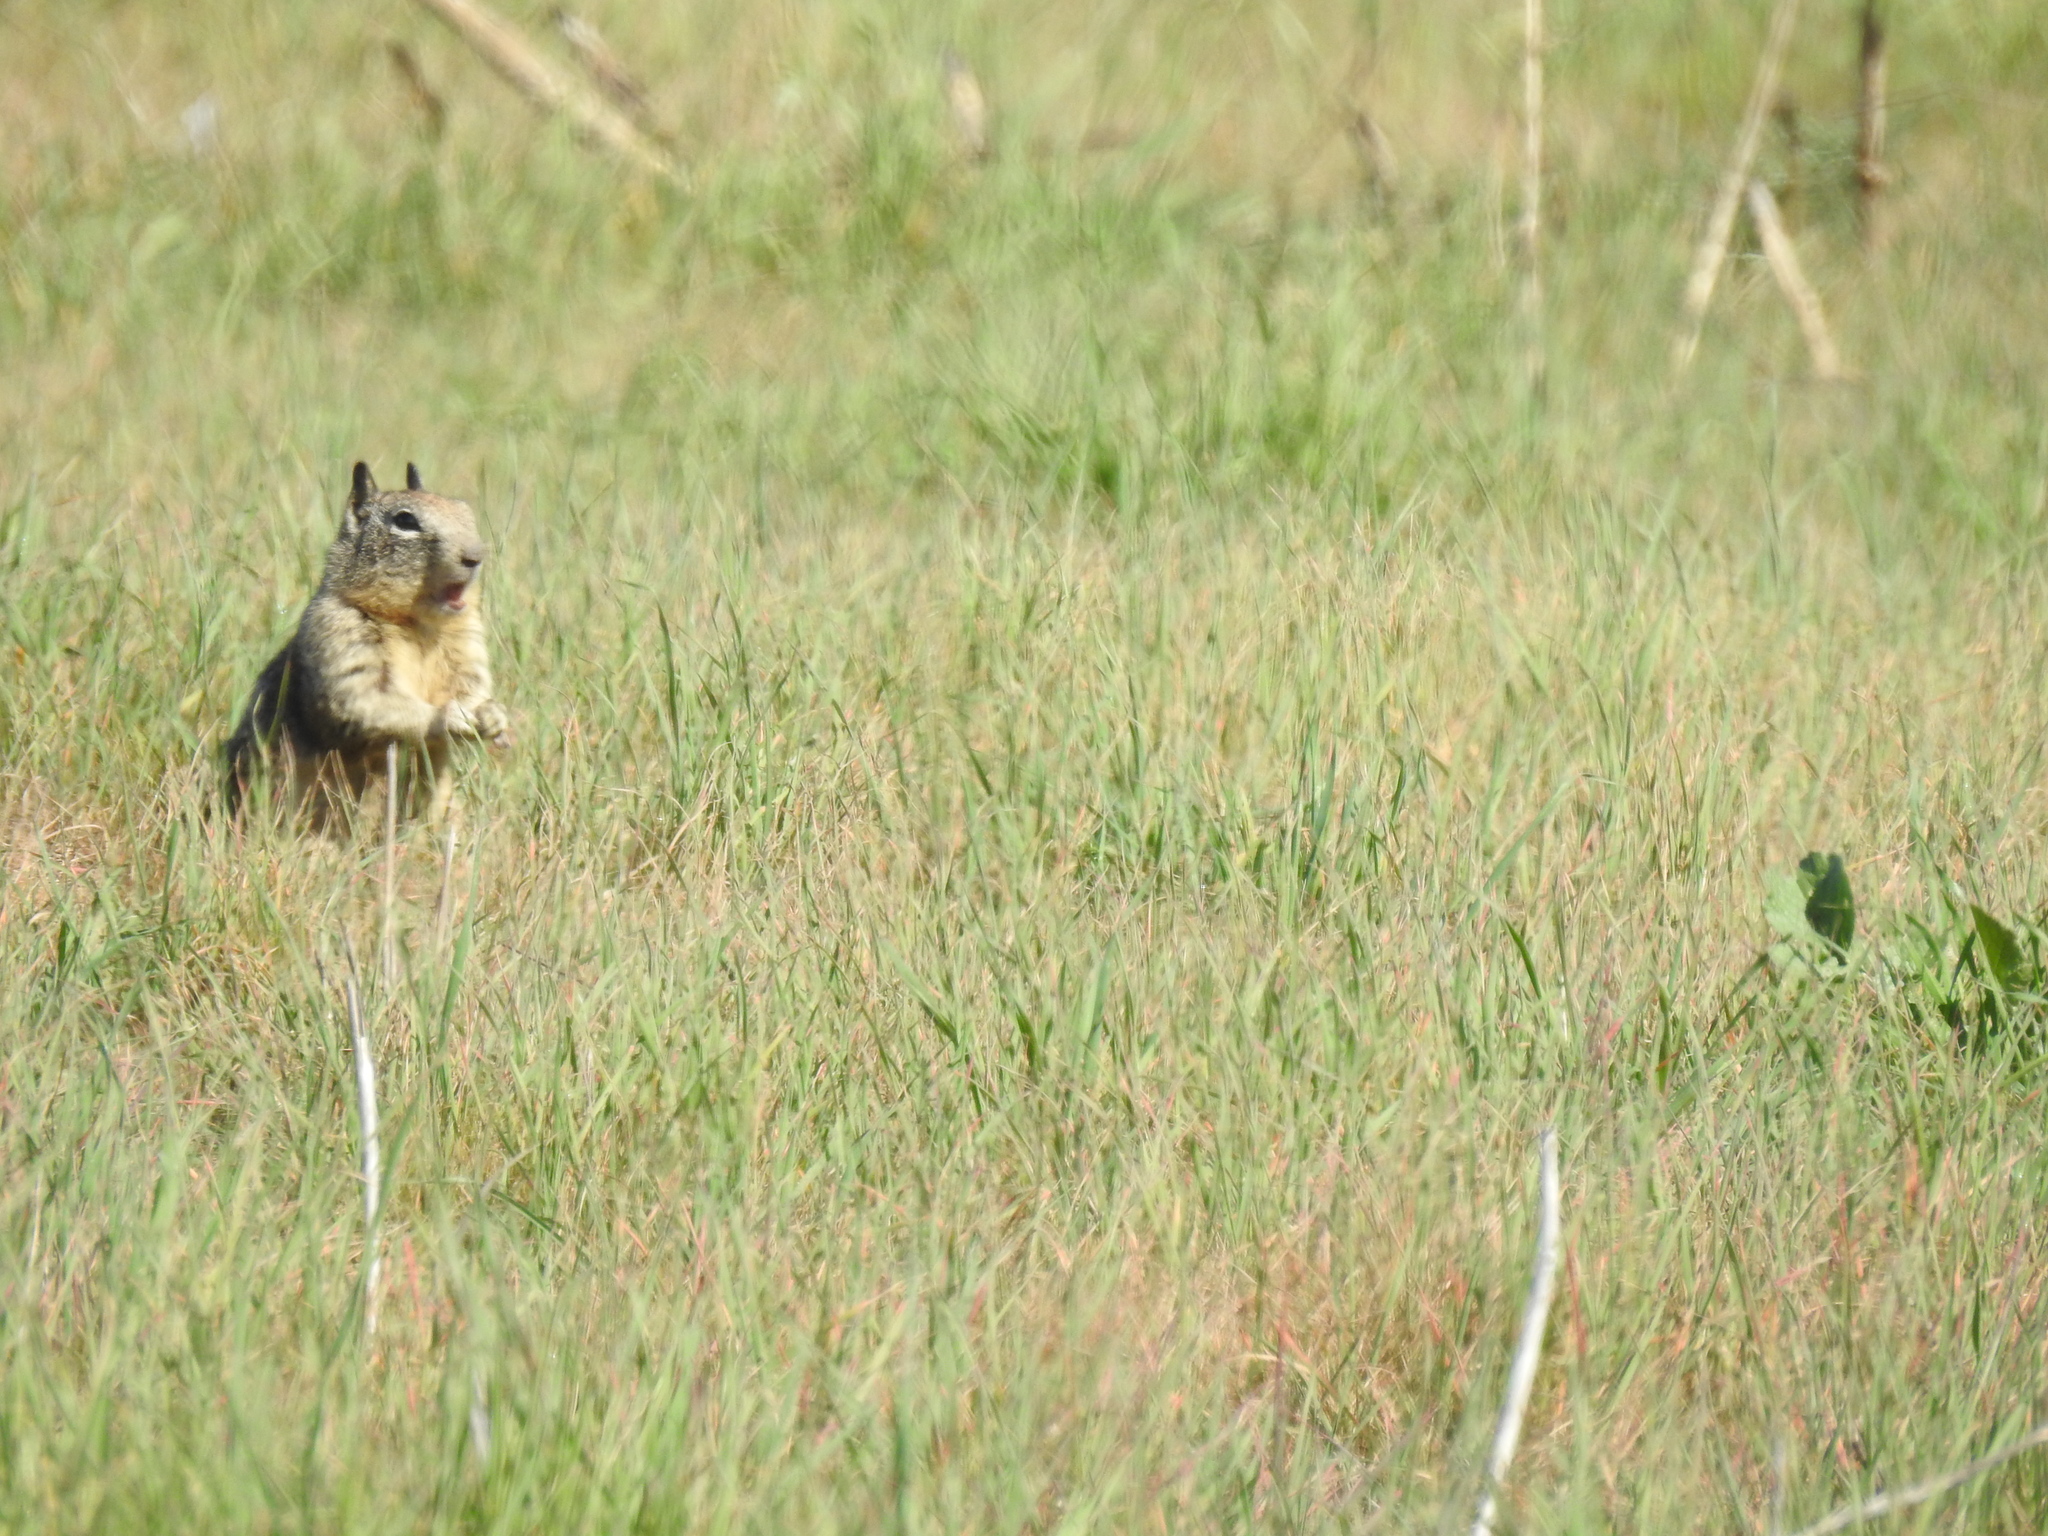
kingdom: Animalia
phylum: Chordata
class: Mammalia
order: Rodentia
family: Sciuridae
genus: Otospermophilus
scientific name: Otospermophilus beecheyi
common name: California ground squirrel
